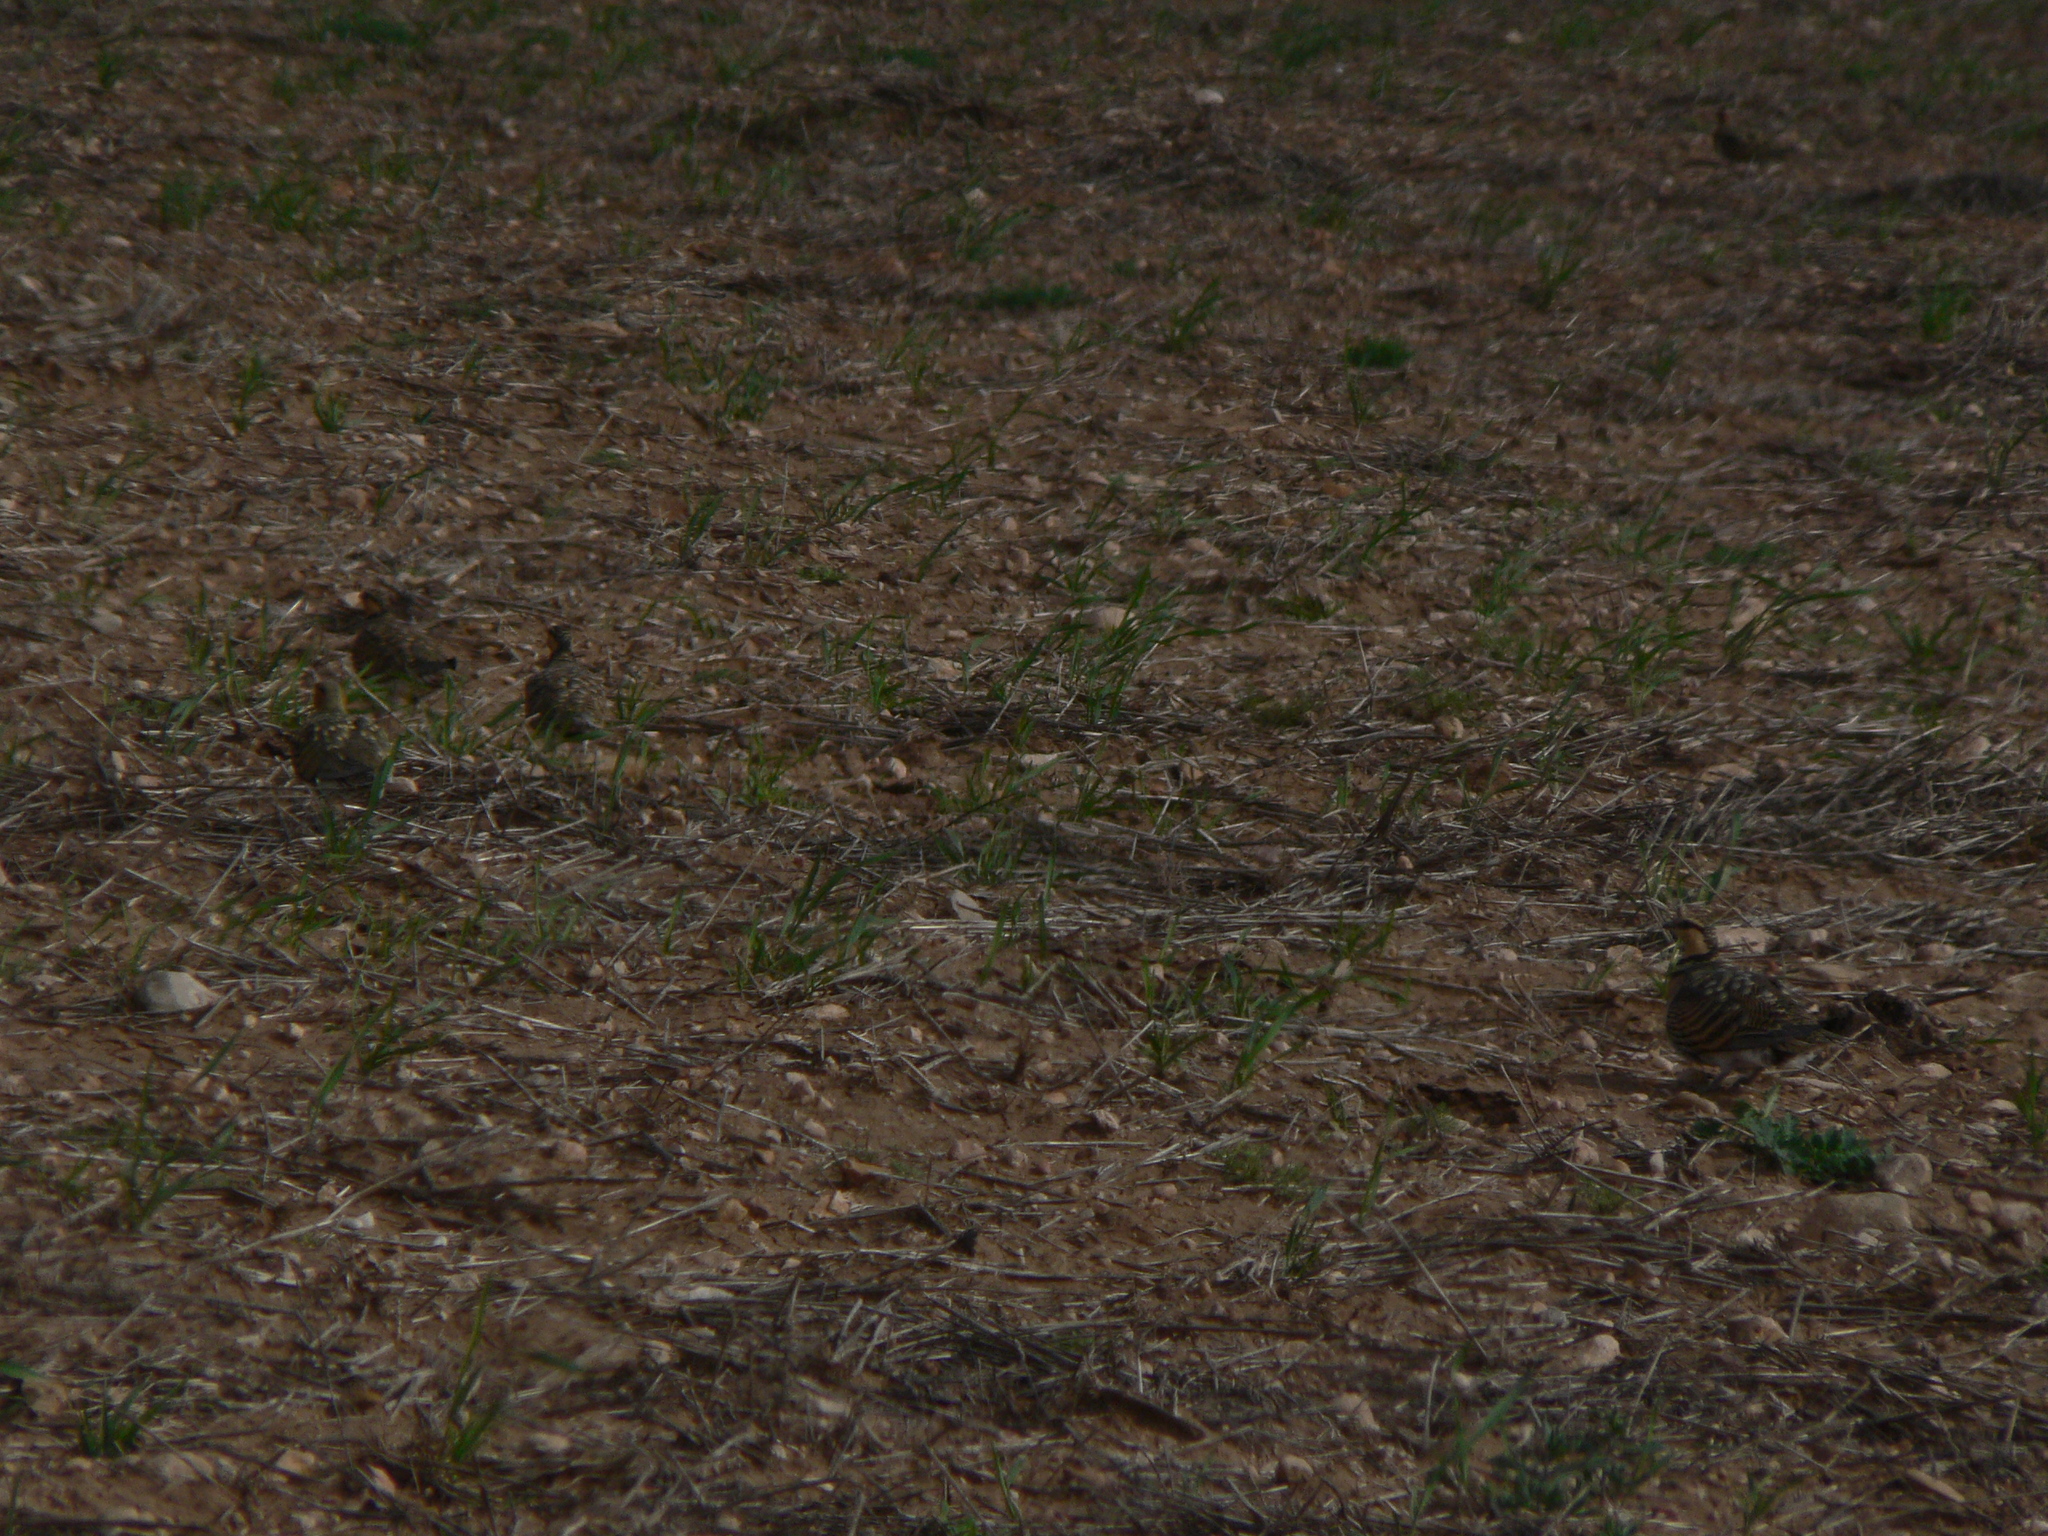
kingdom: Animalia
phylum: Chordata
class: Aves
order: Pteroclidiformes
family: Pteroclididae
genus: Pterocles
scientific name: Pterocles alchata
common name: Pin-tailed sandgrouse
